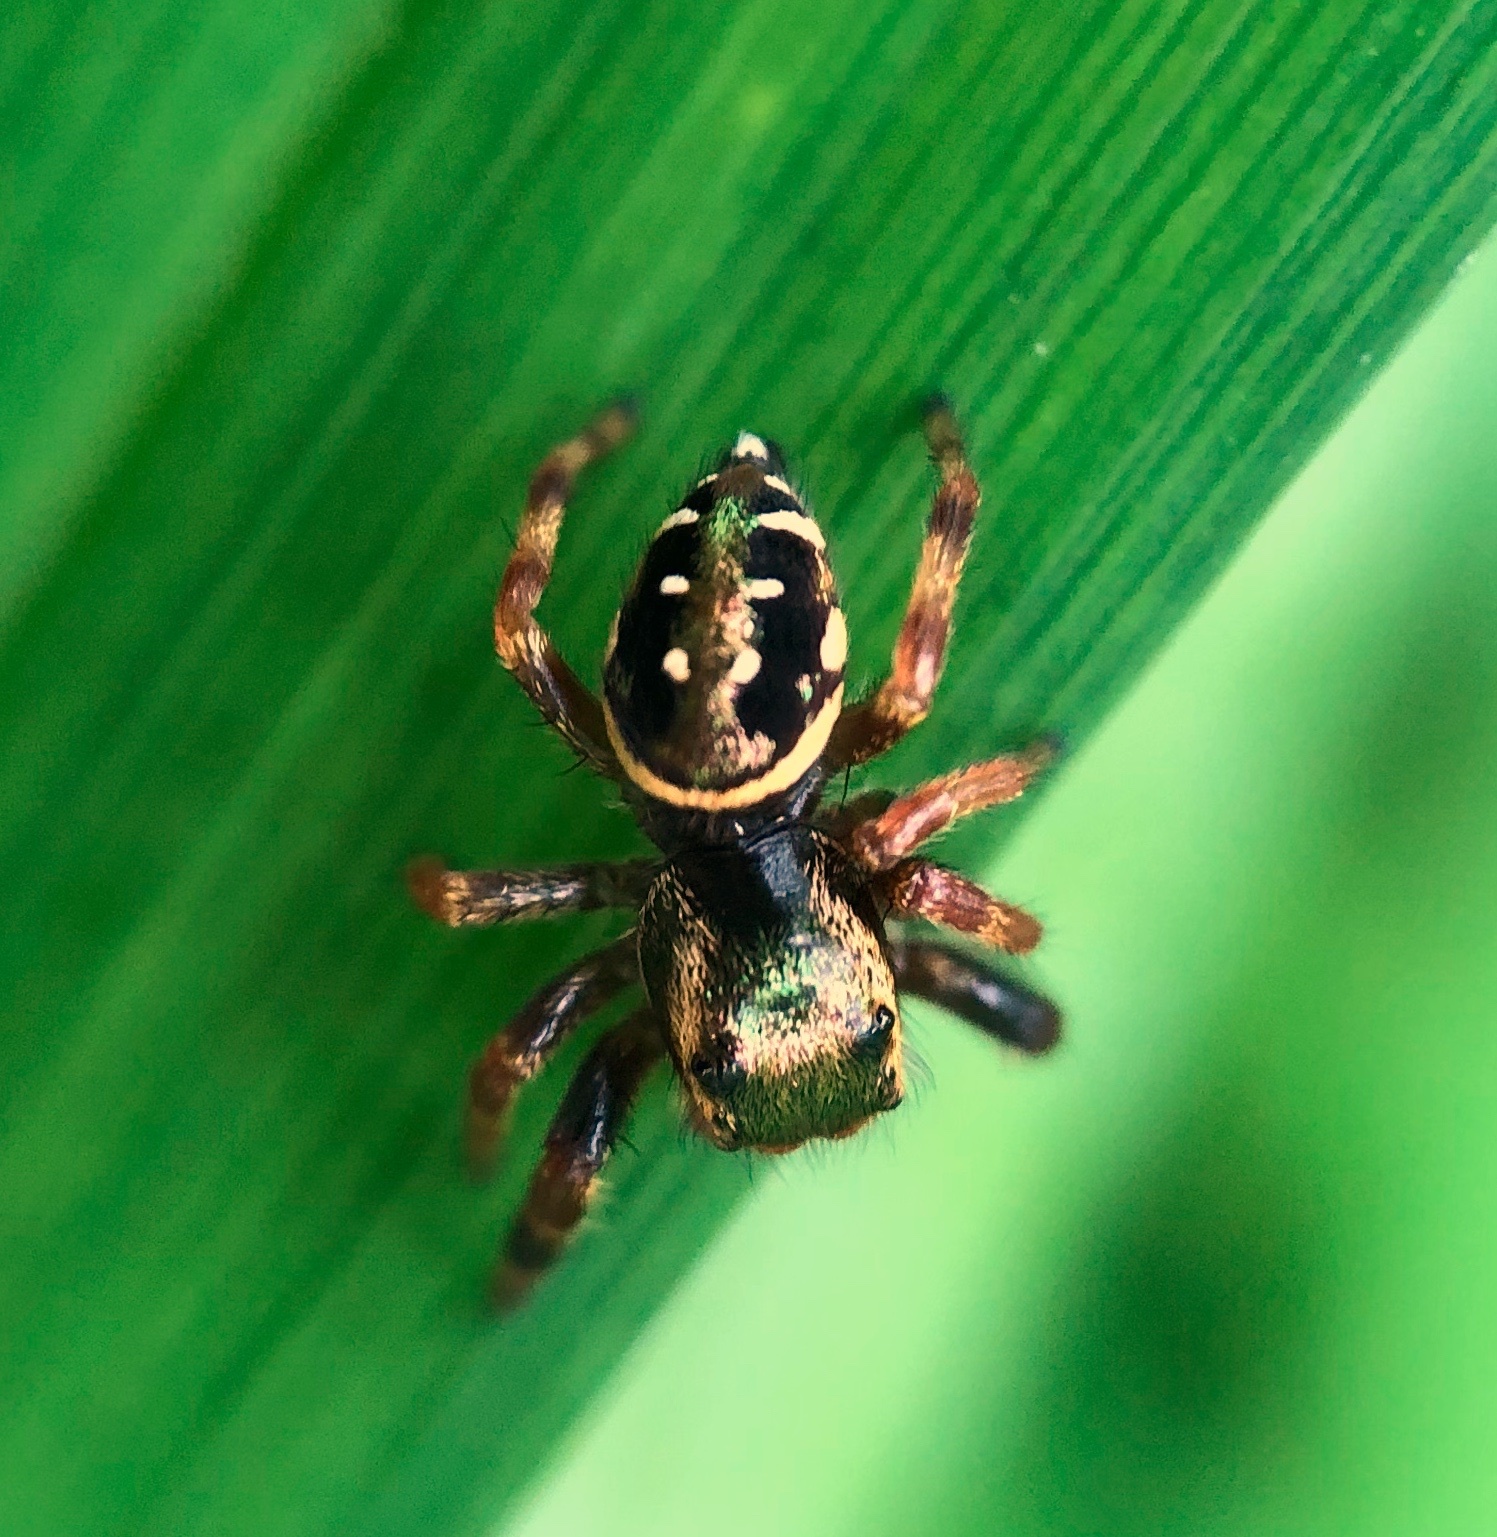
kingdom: Animalia
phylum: Arthropoda
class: Arachnida
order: Araneae
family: Salticidae
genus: Paraphidippus
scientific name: Paraphidippus aurantius
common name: Jumping spiders
